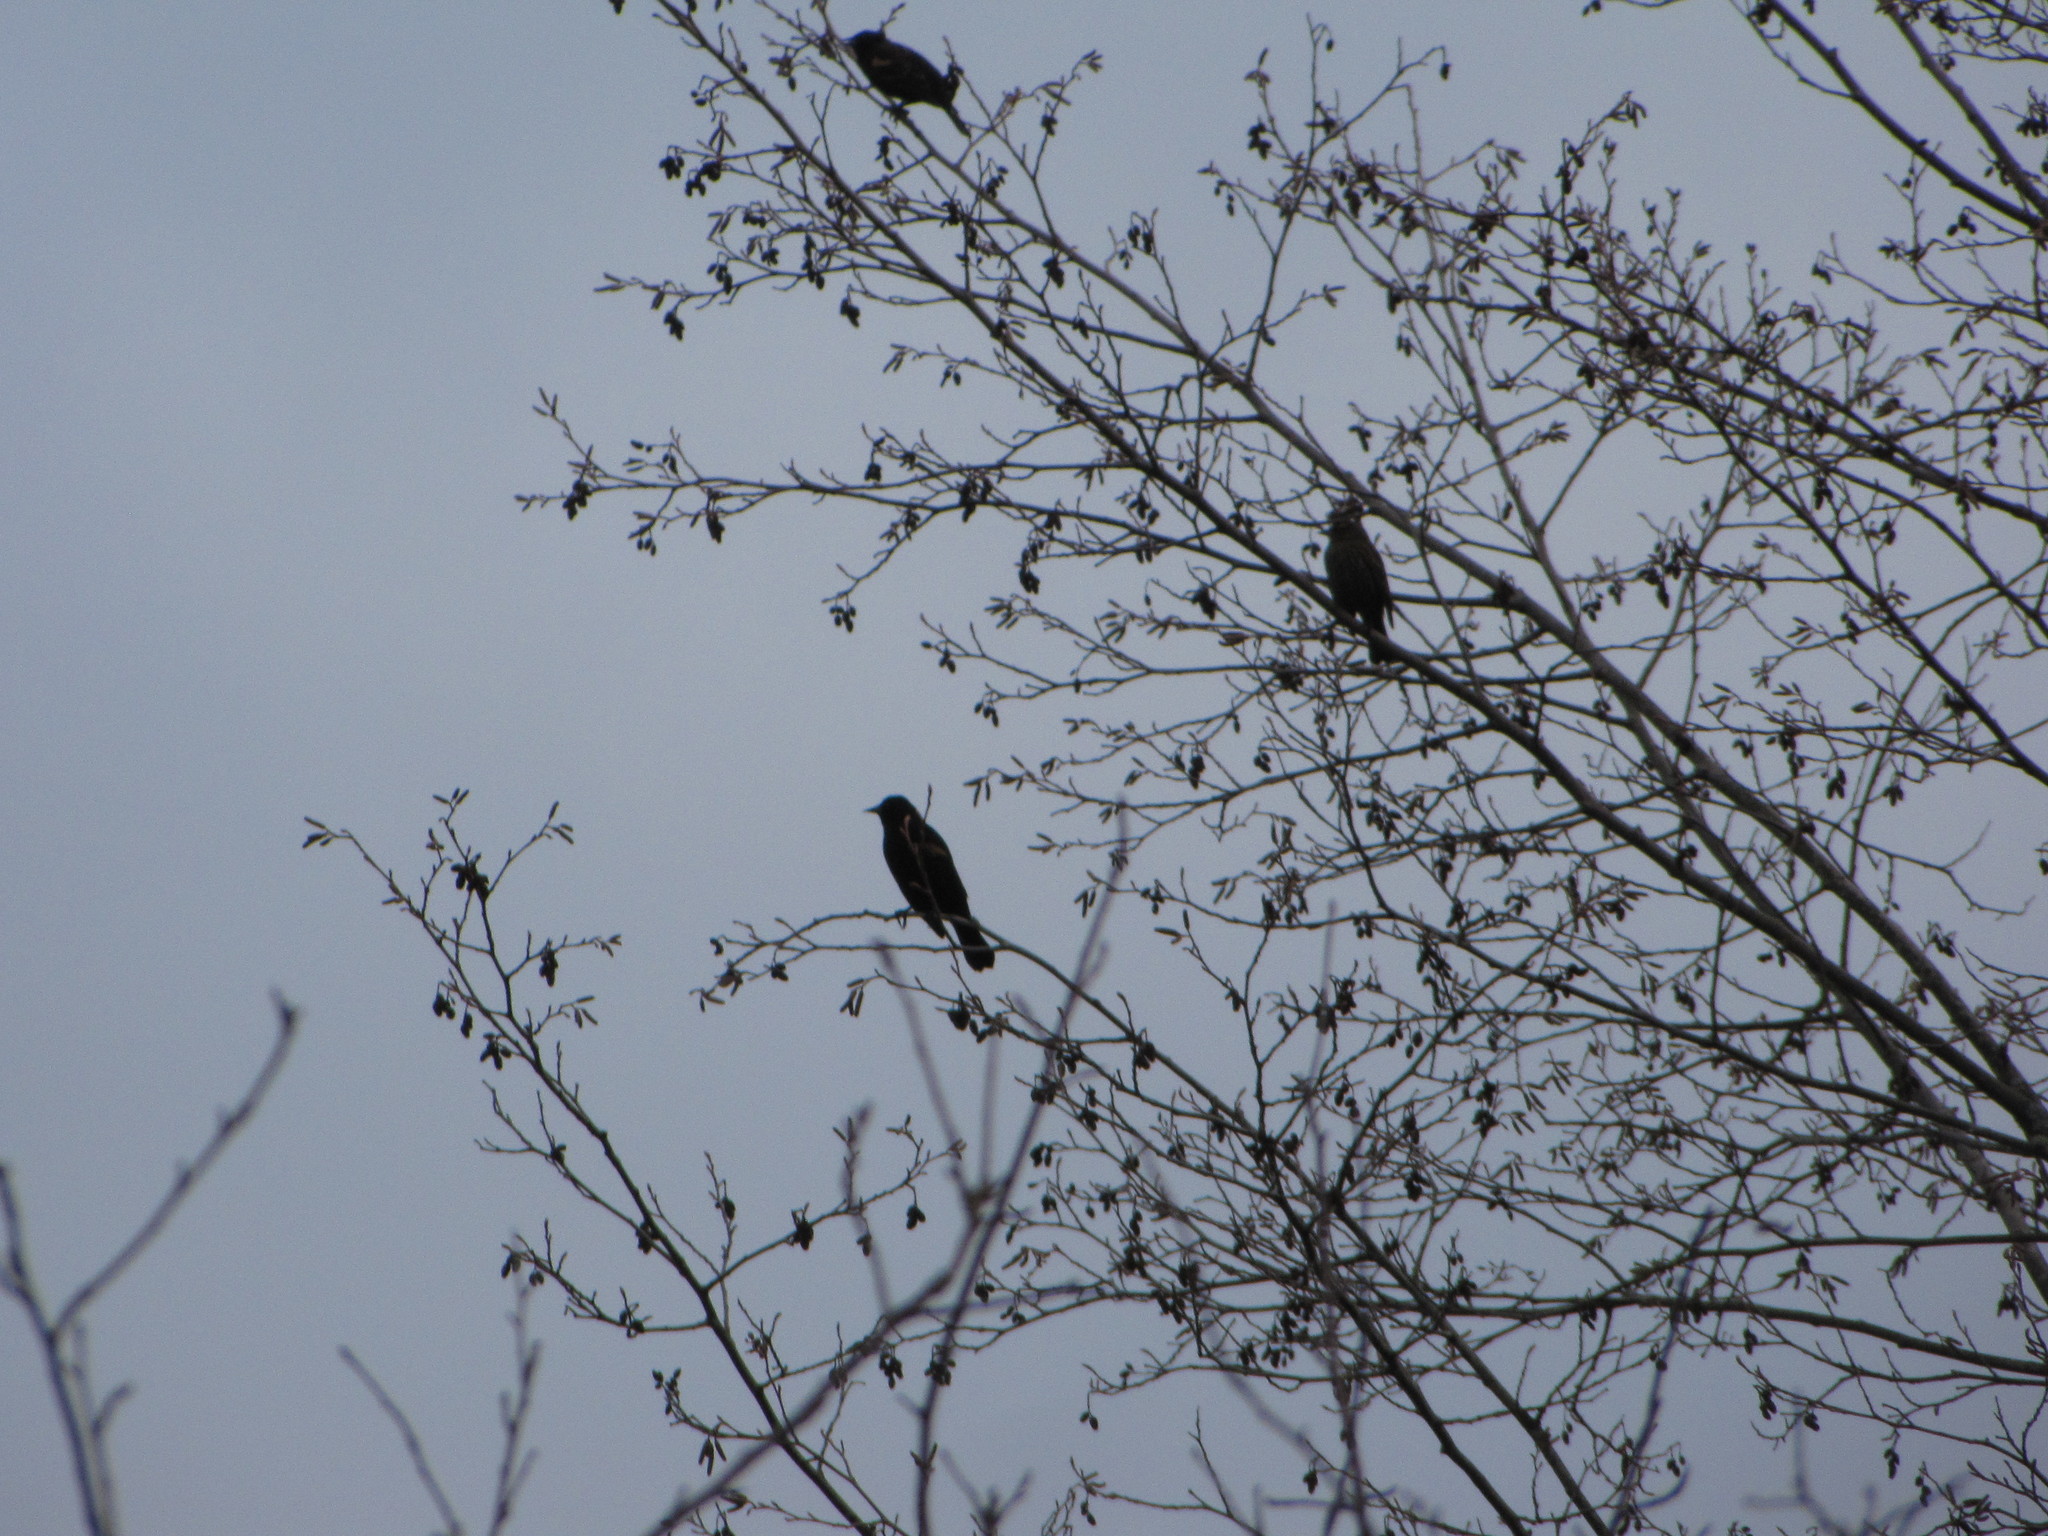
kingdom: Animalia
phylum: Chordata
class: Aves
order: Passeriformes
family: Icteridae
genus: Agelaius
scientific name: Agelaius phoeniceus
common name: Red-winged blackbird
